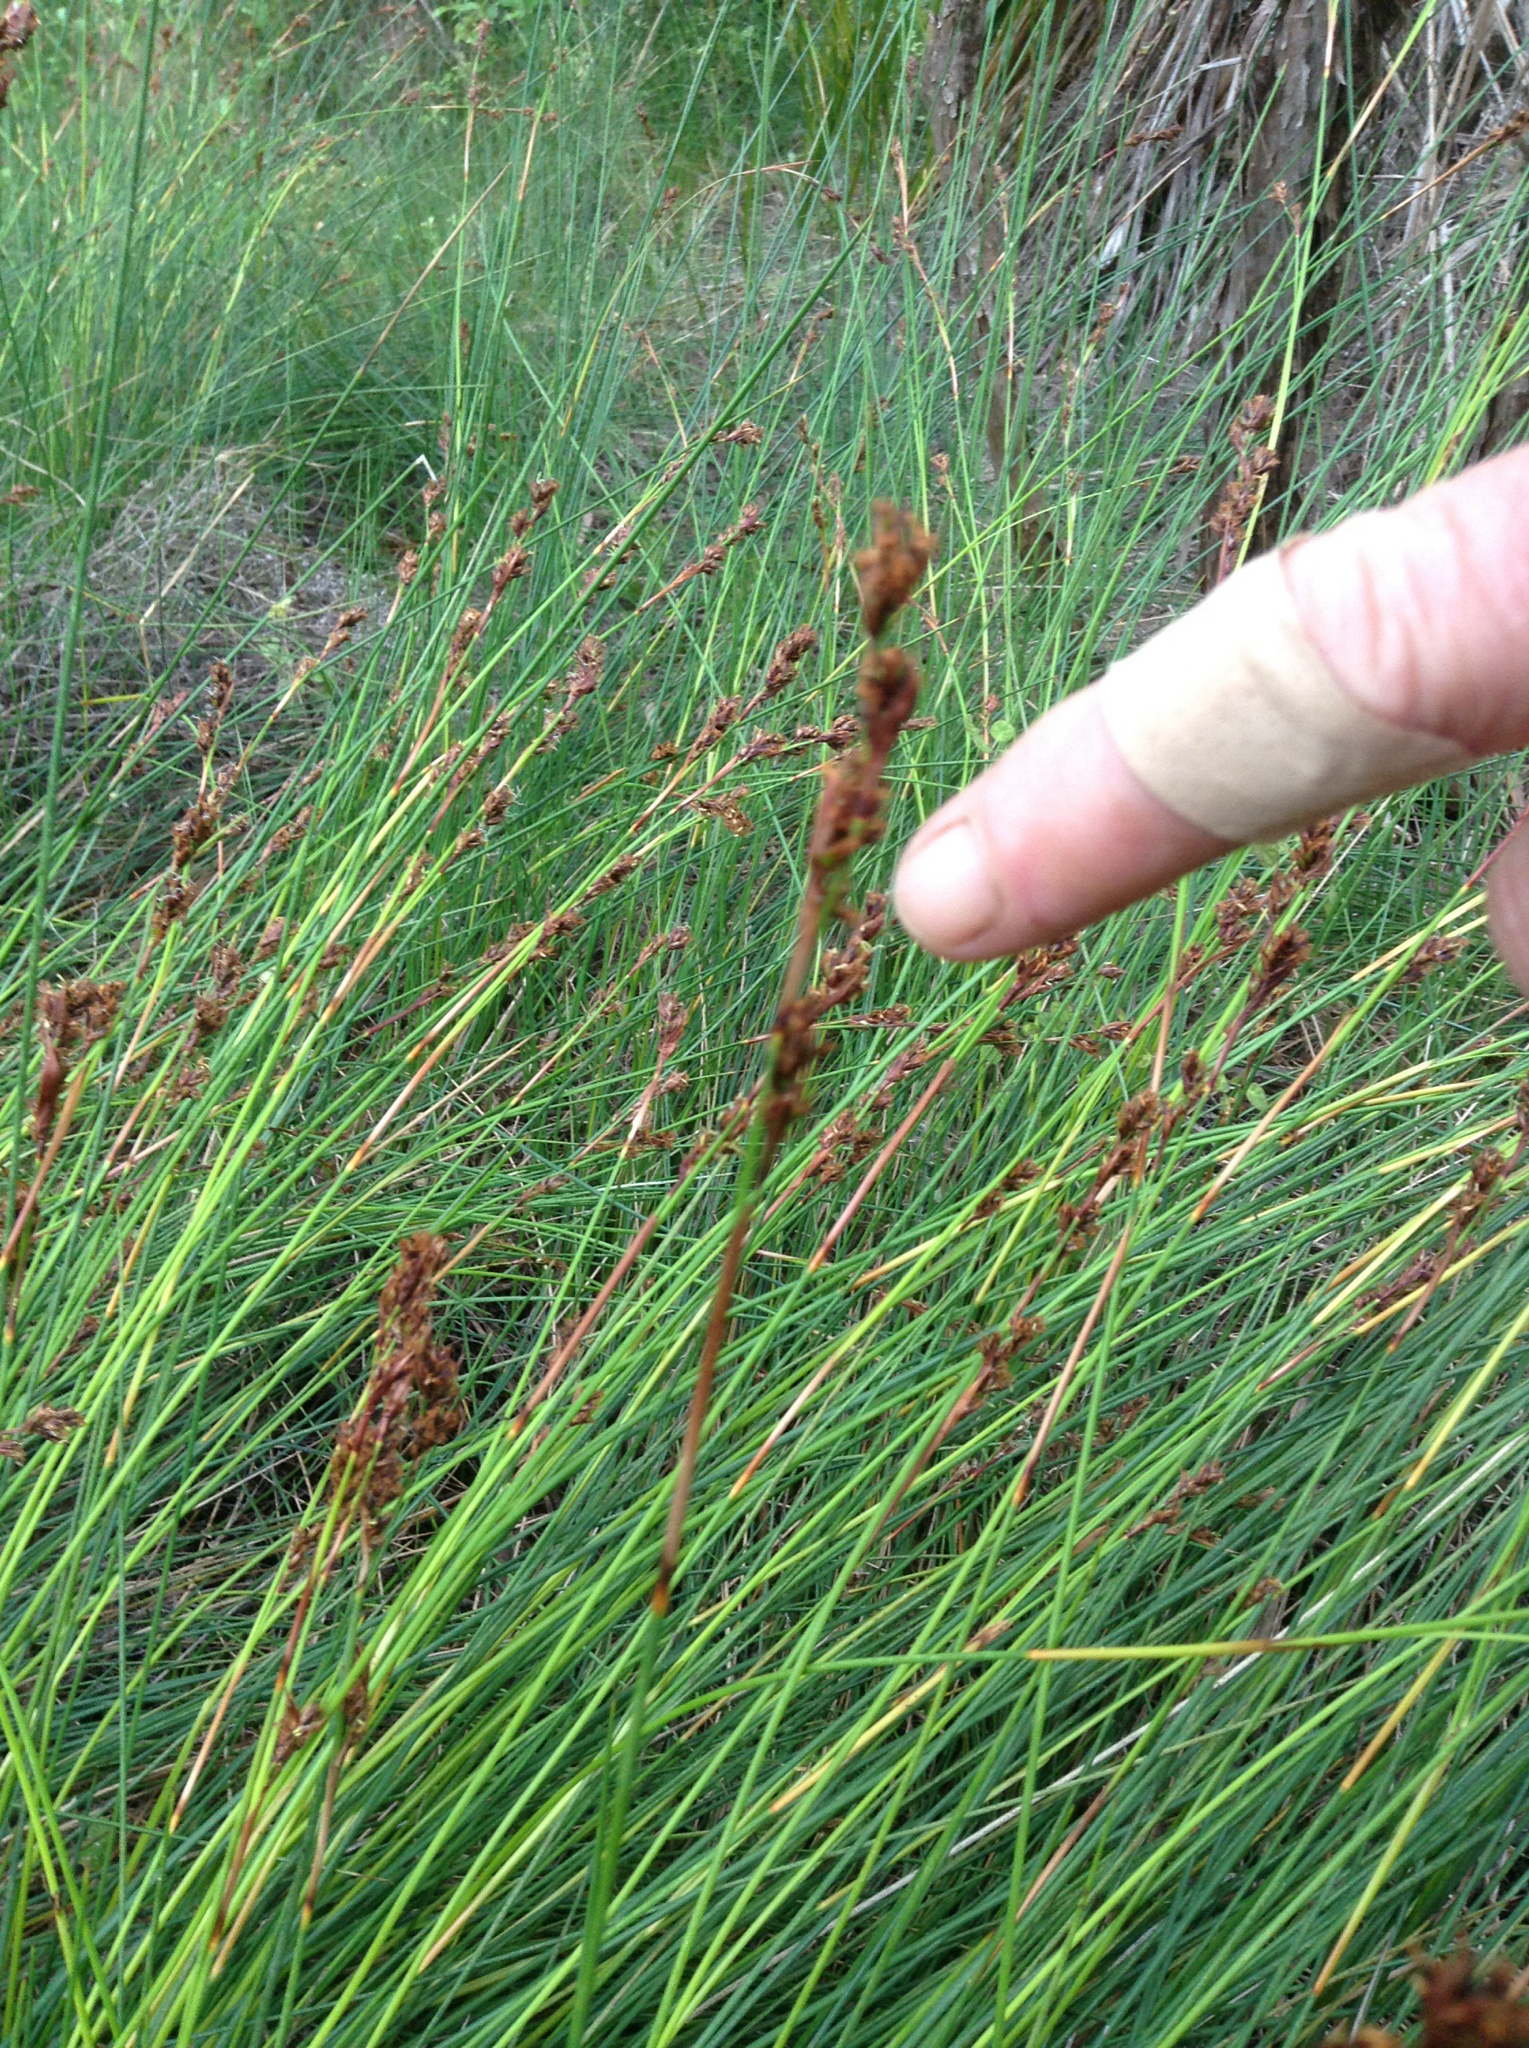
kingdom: Plantae
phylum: Tracheophyta
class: Liliopsida
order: Poales
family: Cyperaceae
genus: Machaerina
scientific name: Machaerina rubiginosa
